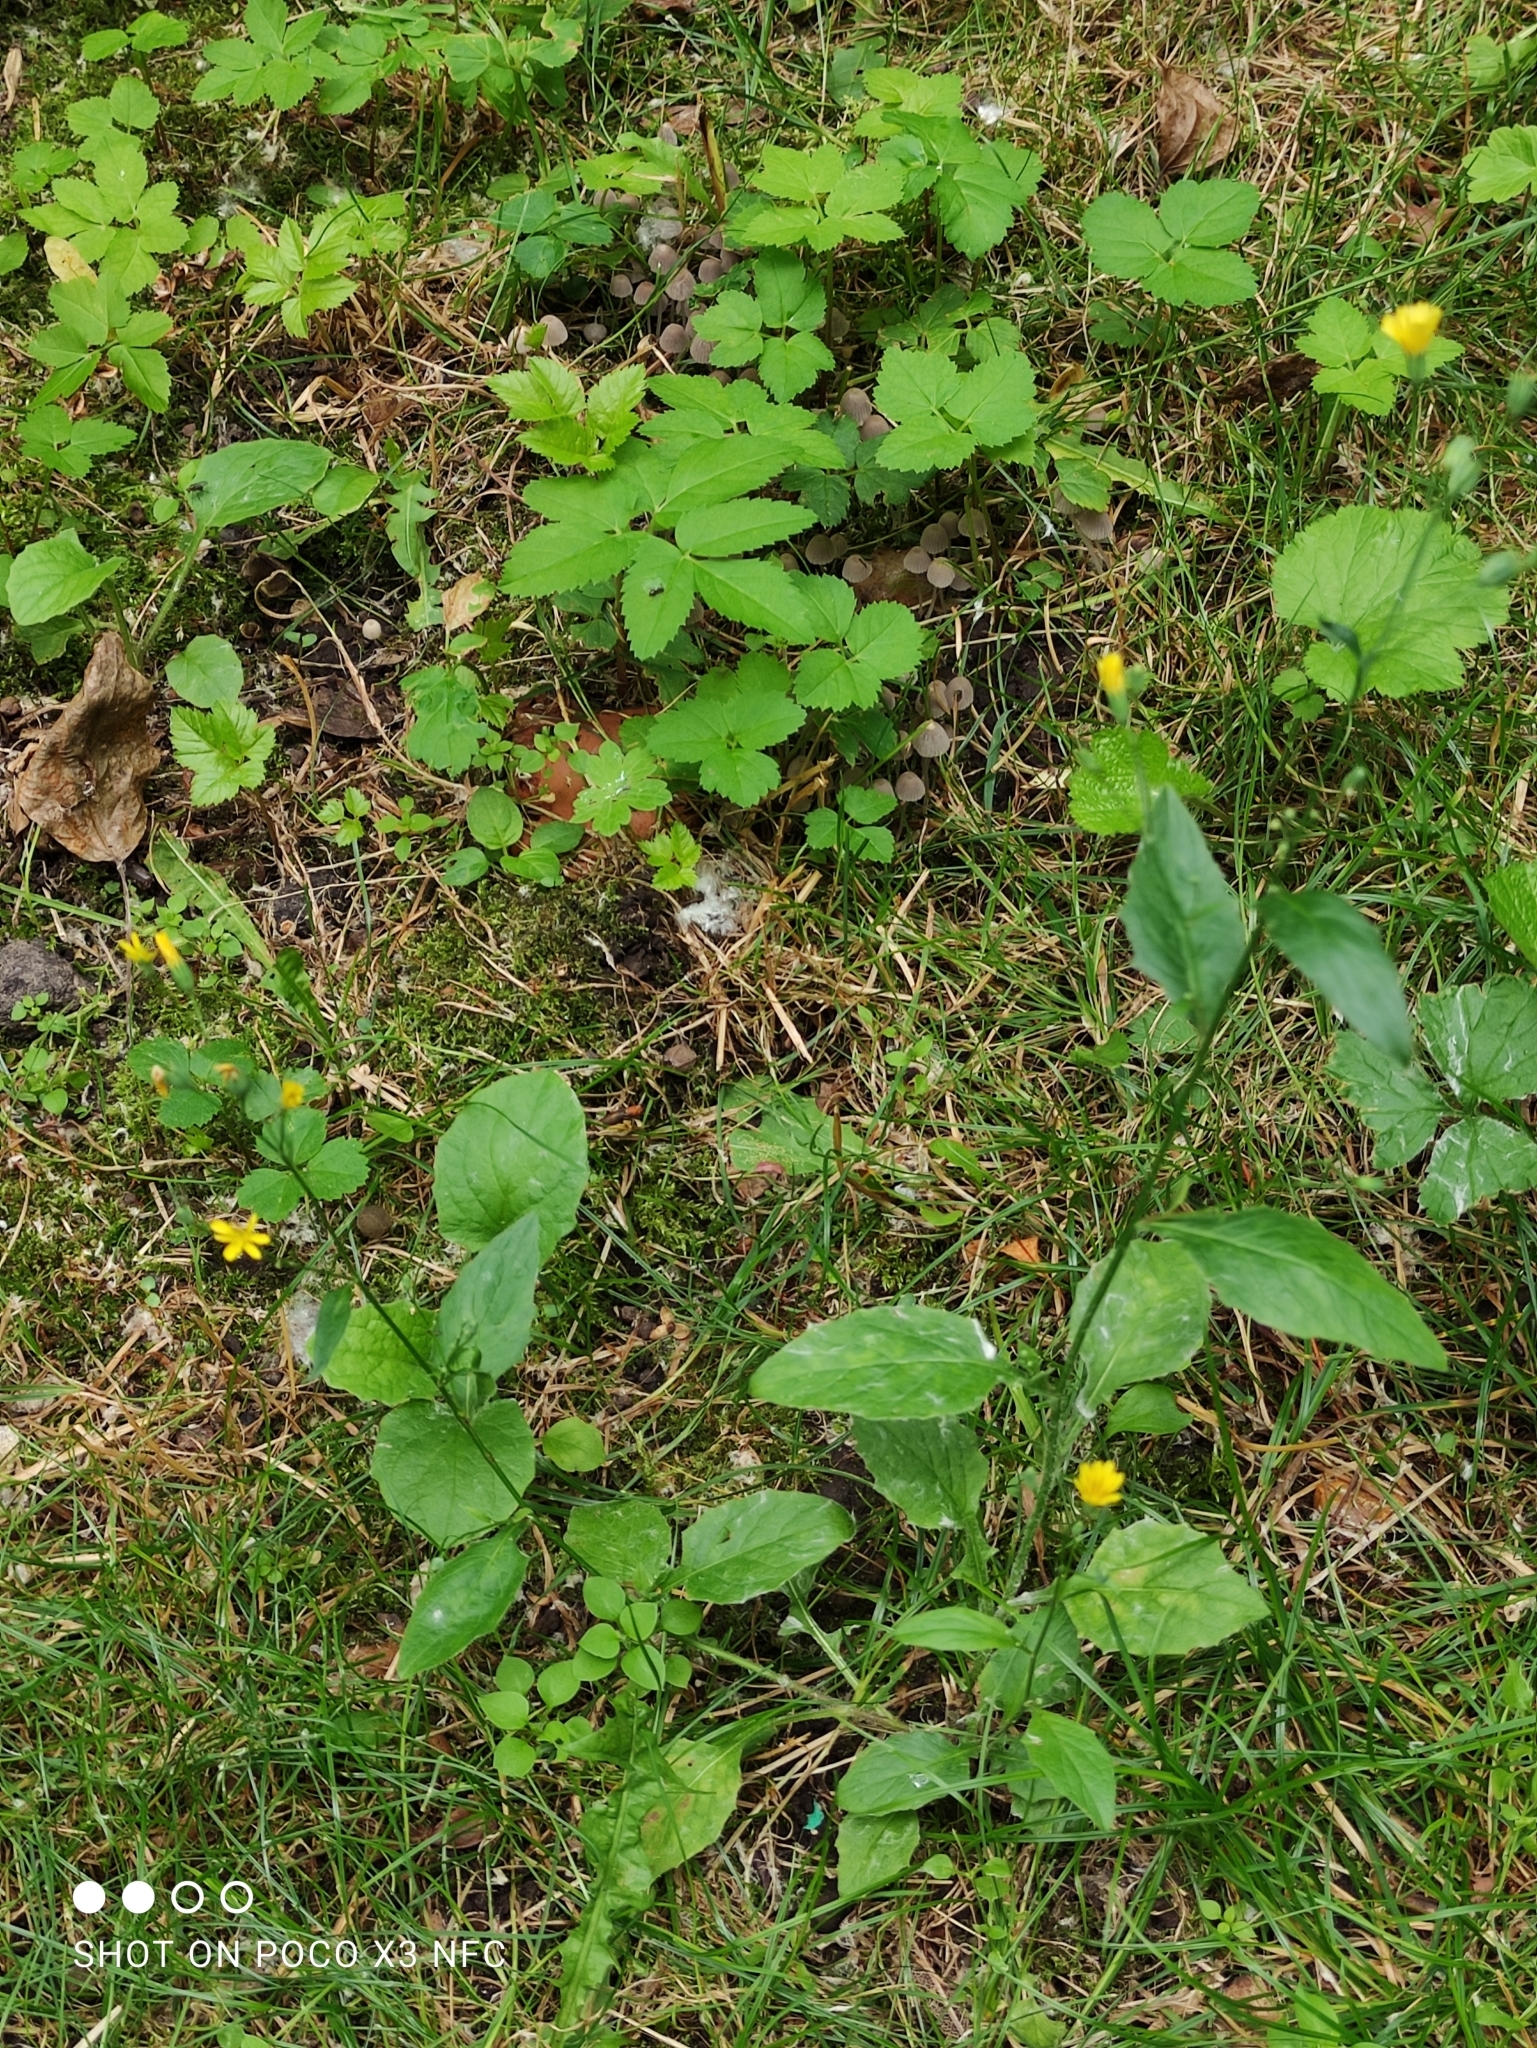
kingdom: Plantae
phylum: Tracheophyta
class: Magnoliopsida
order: Asterales
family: Asteraceae
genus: Lapsana
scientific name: Lapsana communis
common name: Nipplewort
